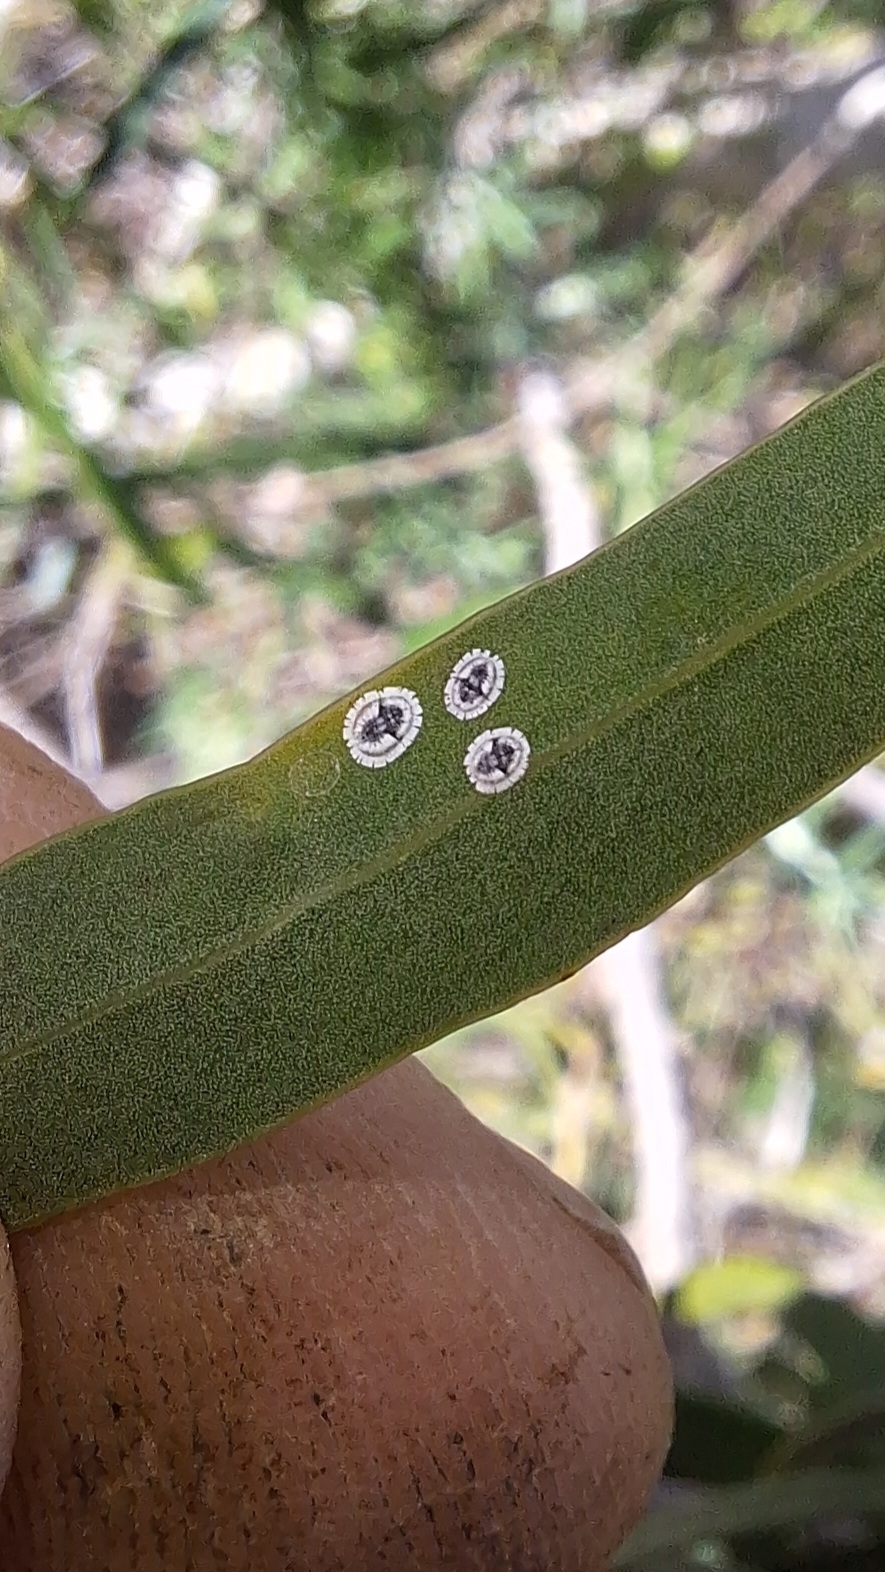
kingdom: Animalia
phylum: Arthropoda
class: Insecta
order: Hemiptera
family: Aleyrodidae
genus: Dumbletoniella
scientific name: Dumbletoniella pittospori
